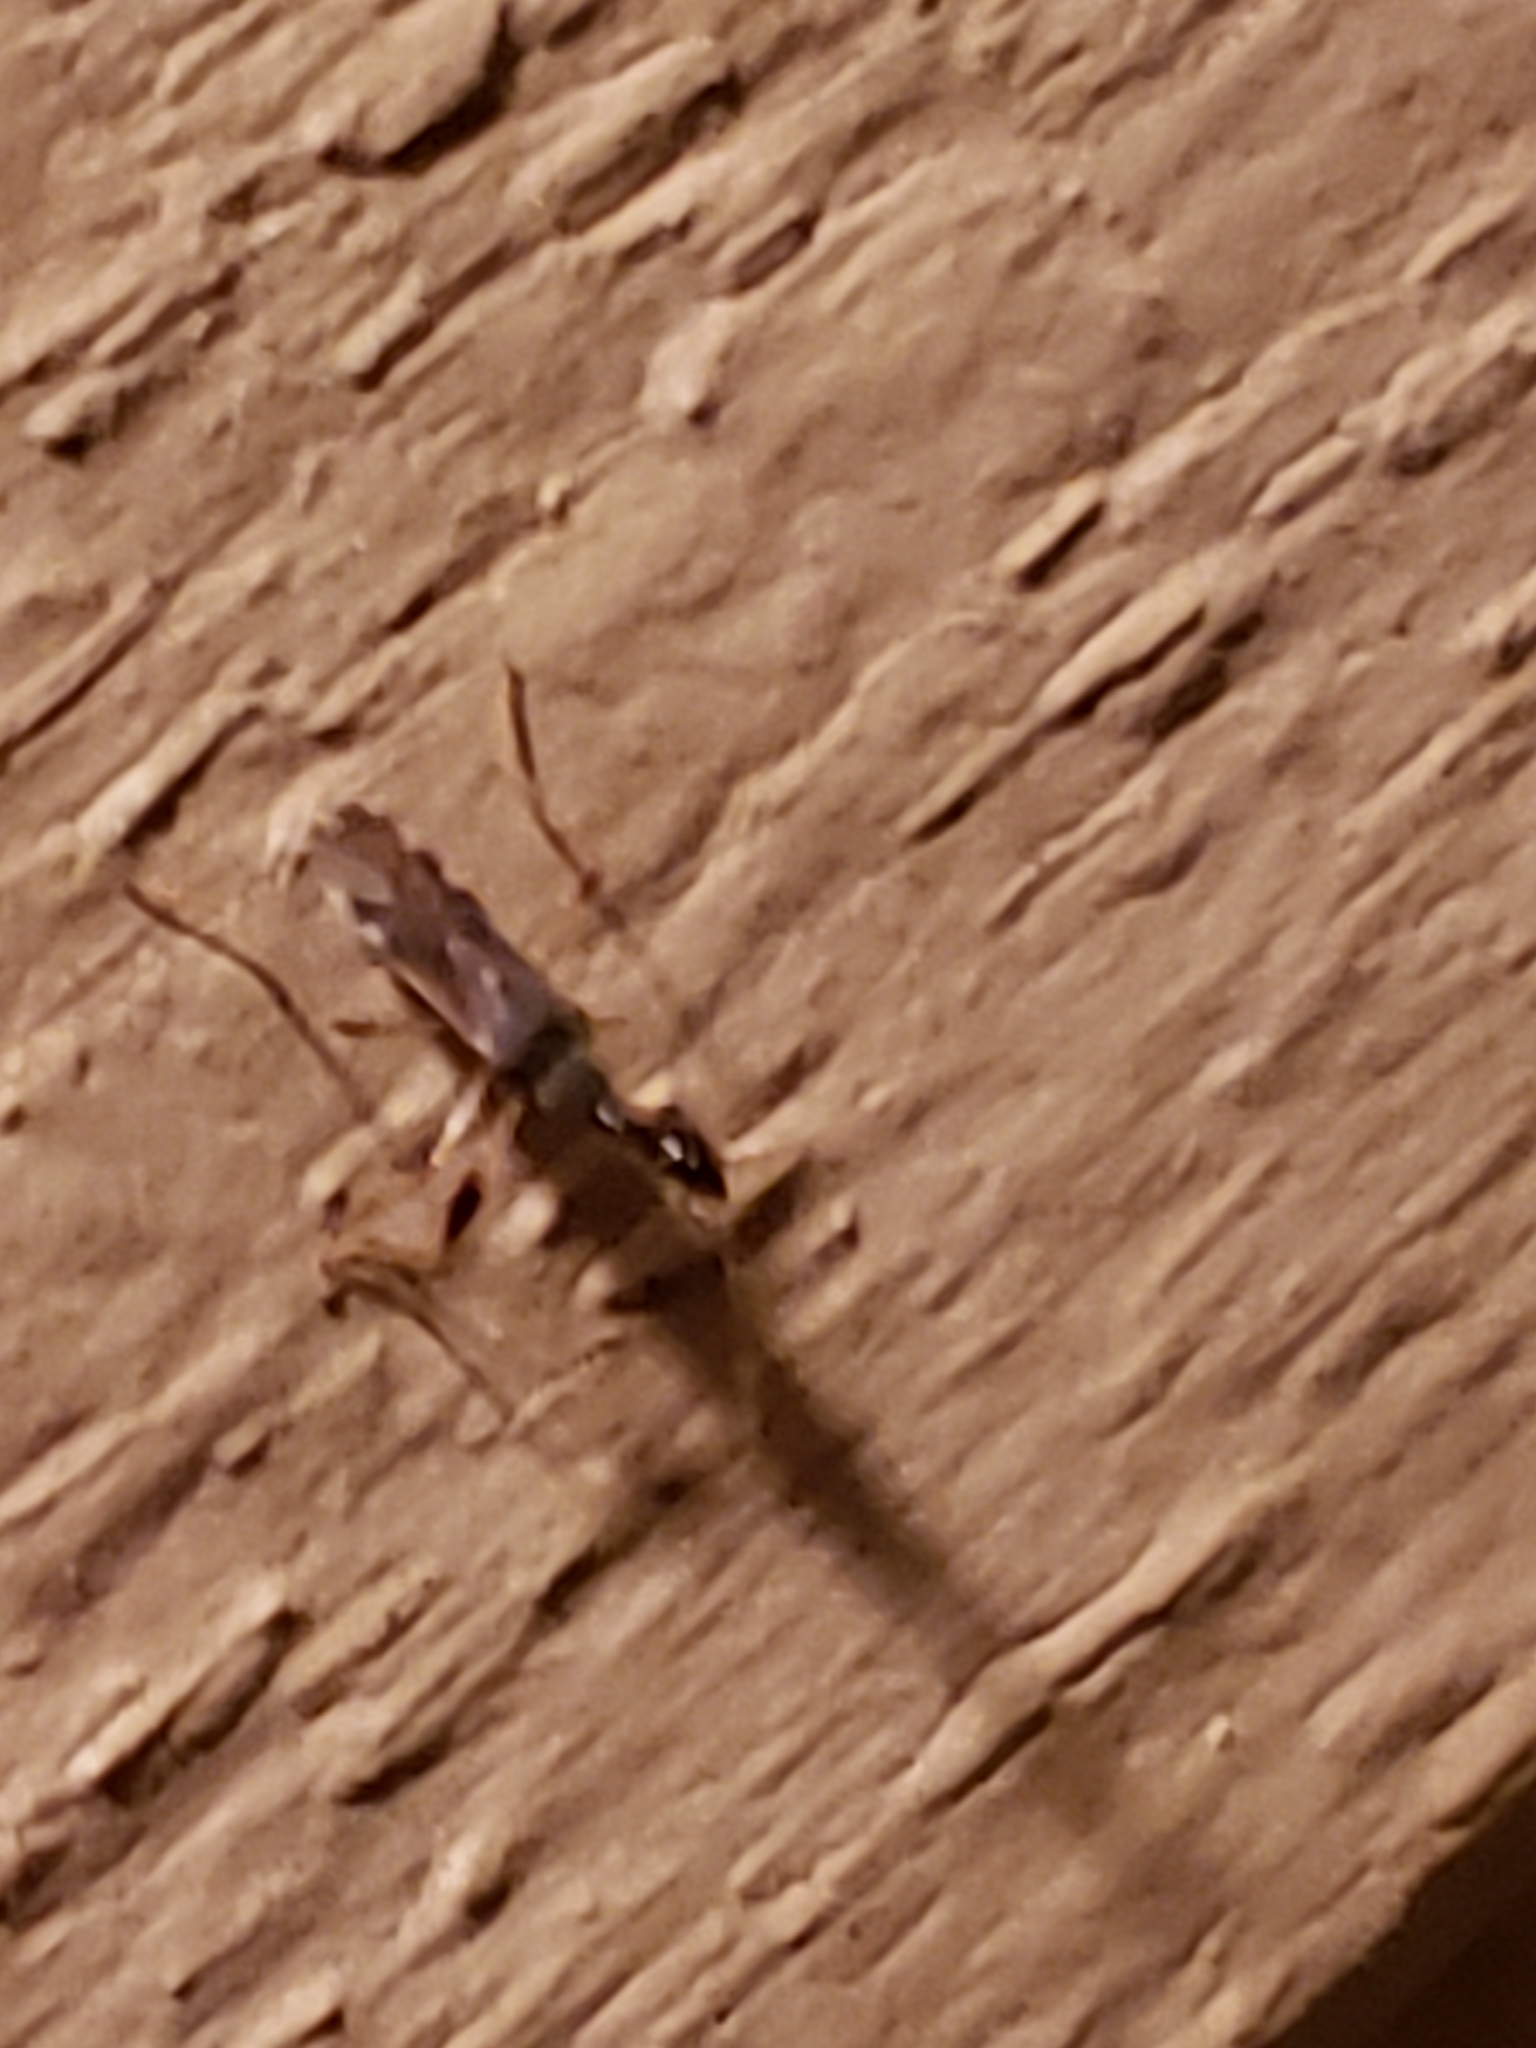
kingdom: Animalia
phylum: Arthropoda
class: Insecta
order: Hemiptera
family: Rhyparochromidae
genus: Myodocha
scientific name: Myodocha serripes
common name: Long-necked seed bug
